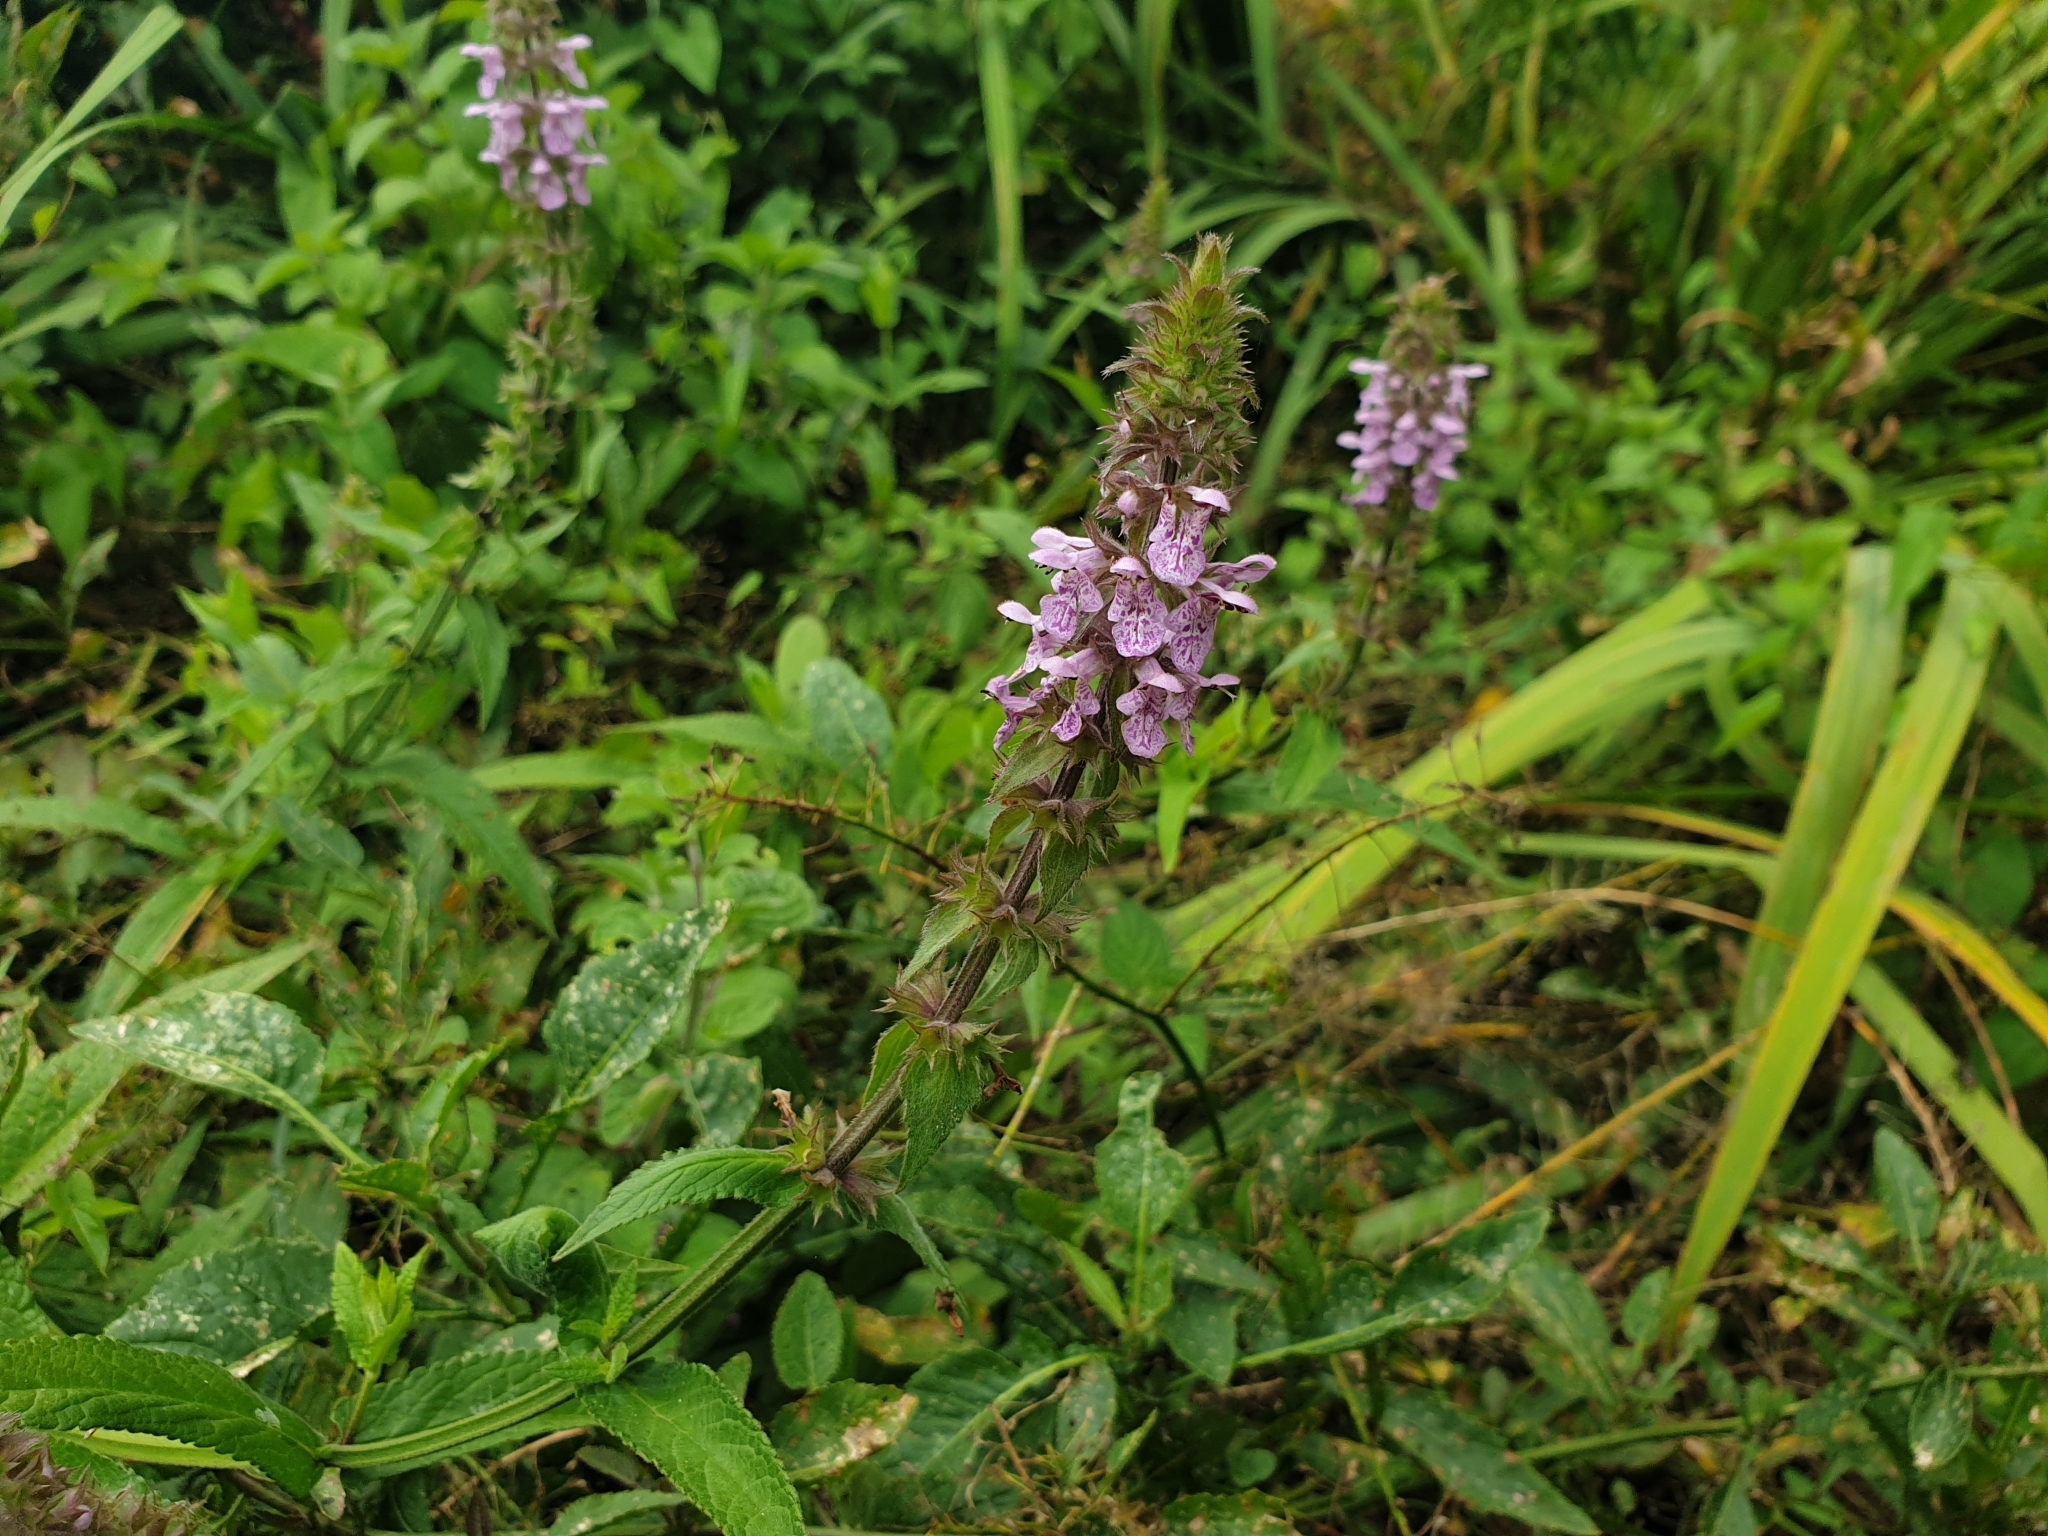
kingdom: Plantae
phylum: Tracheophyta
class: Magnoliopsida
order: Lamiales
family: Lamiaceae
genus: Stachys
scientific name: Stachys palustris
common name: Marsh woundwort
